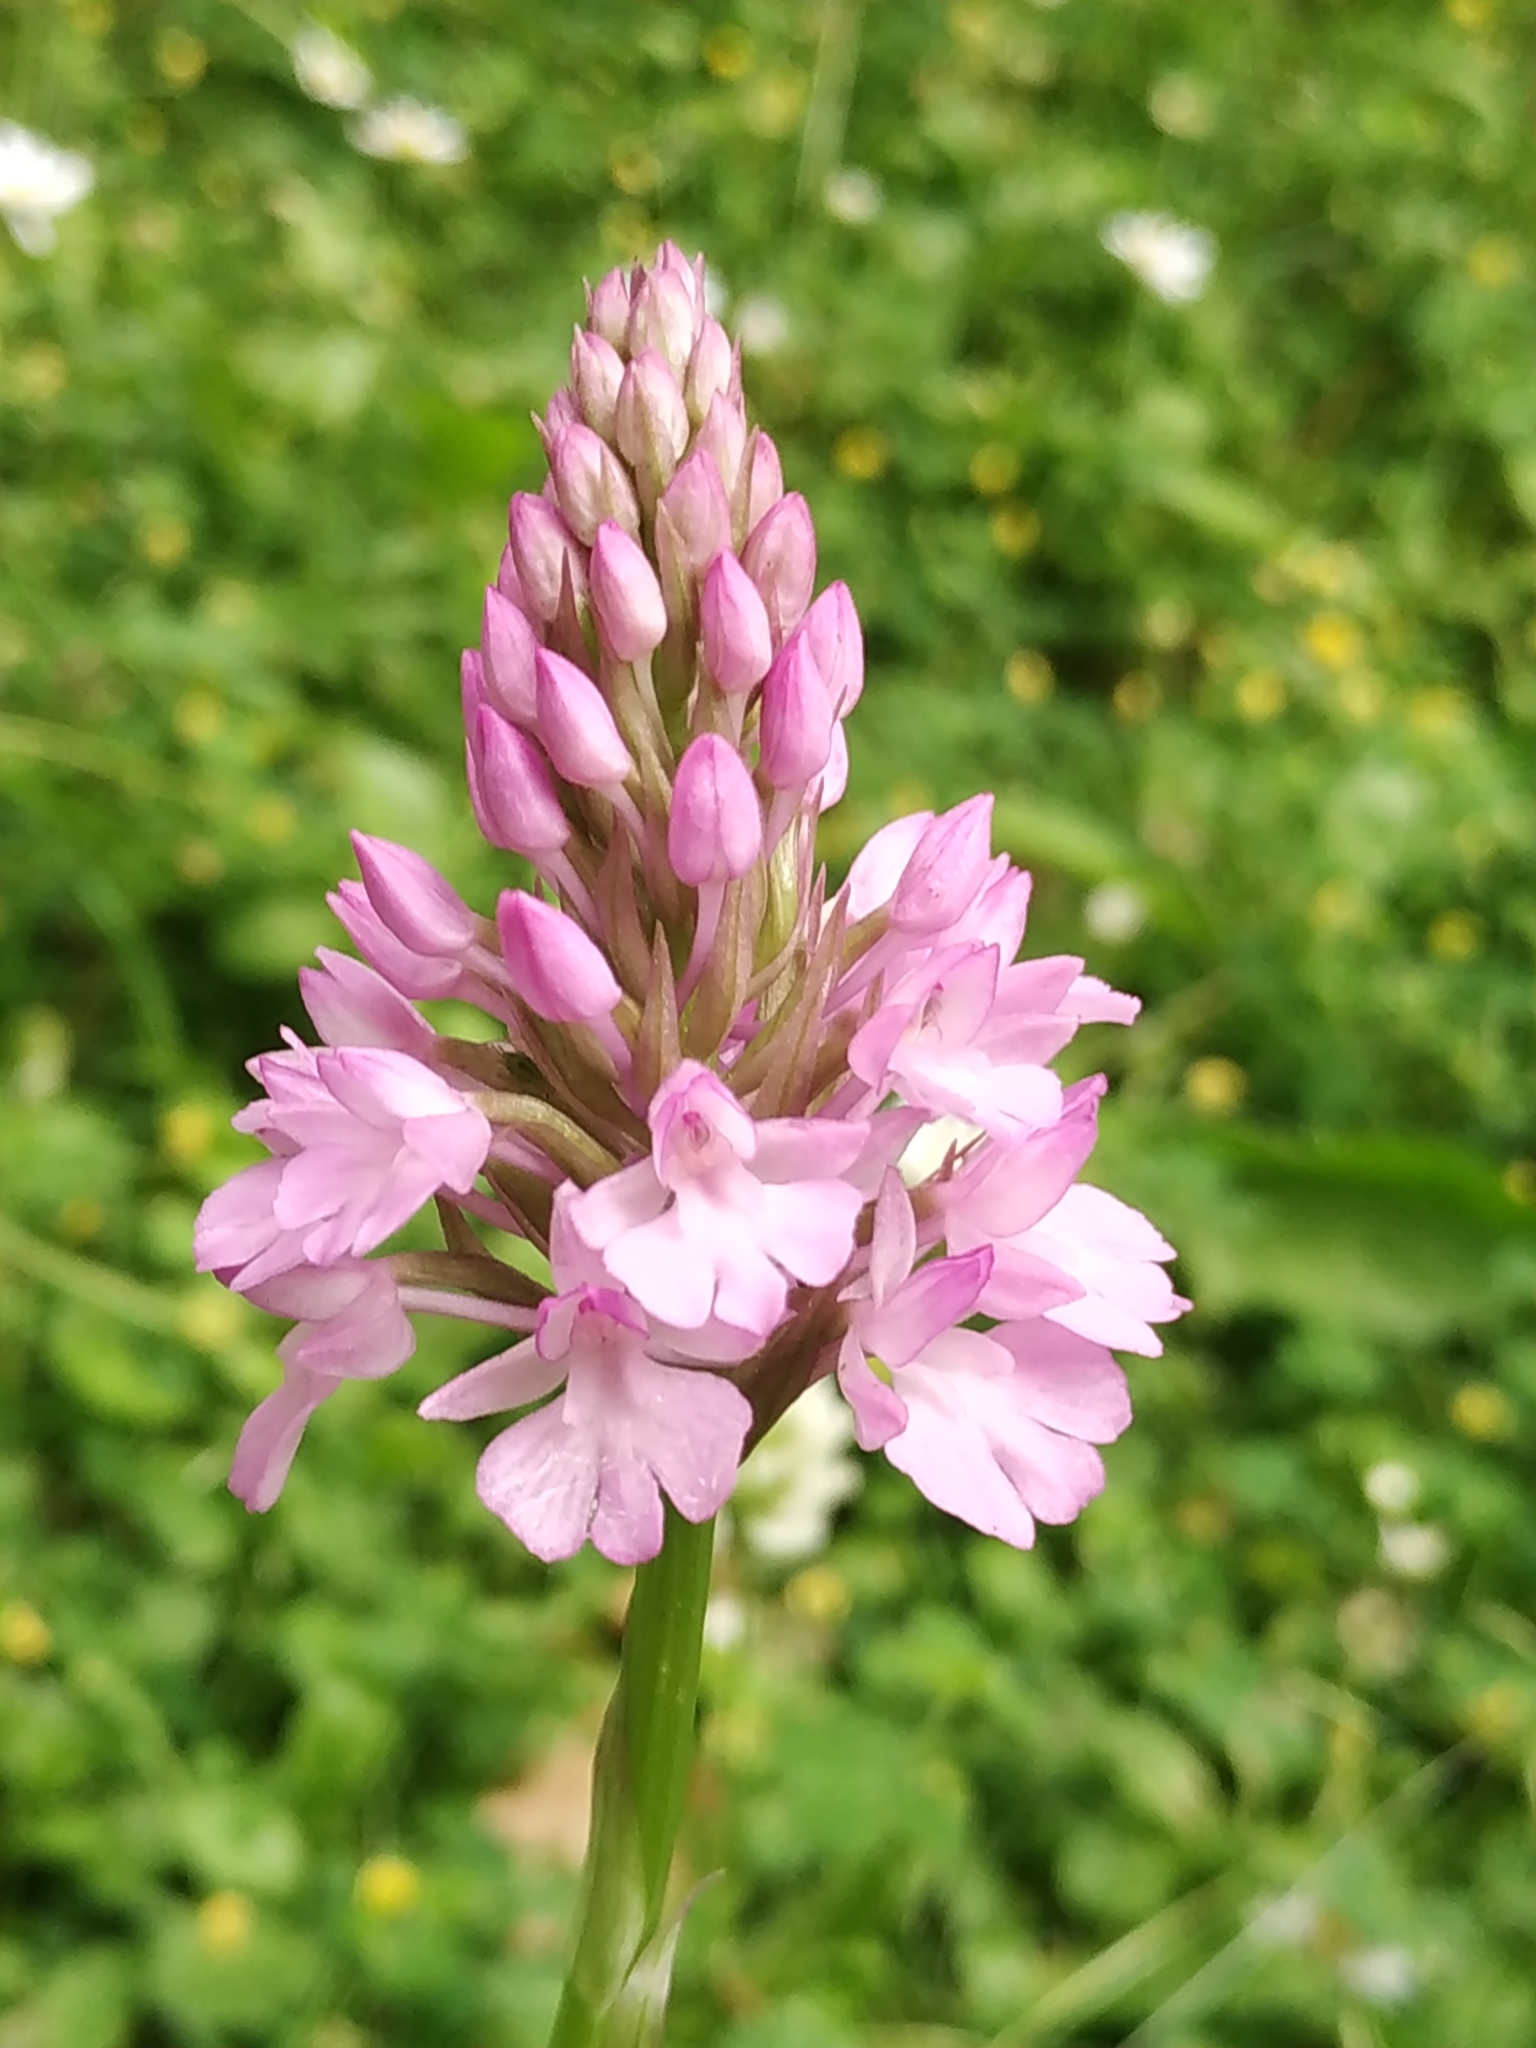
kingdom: Plantae
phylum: Tracheophyta
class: Liliopsida
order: Asparagales
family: Orchidaceae
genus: Anacamptis
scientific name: Anacamptis pyramidalis
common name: Pyramidal orchid
